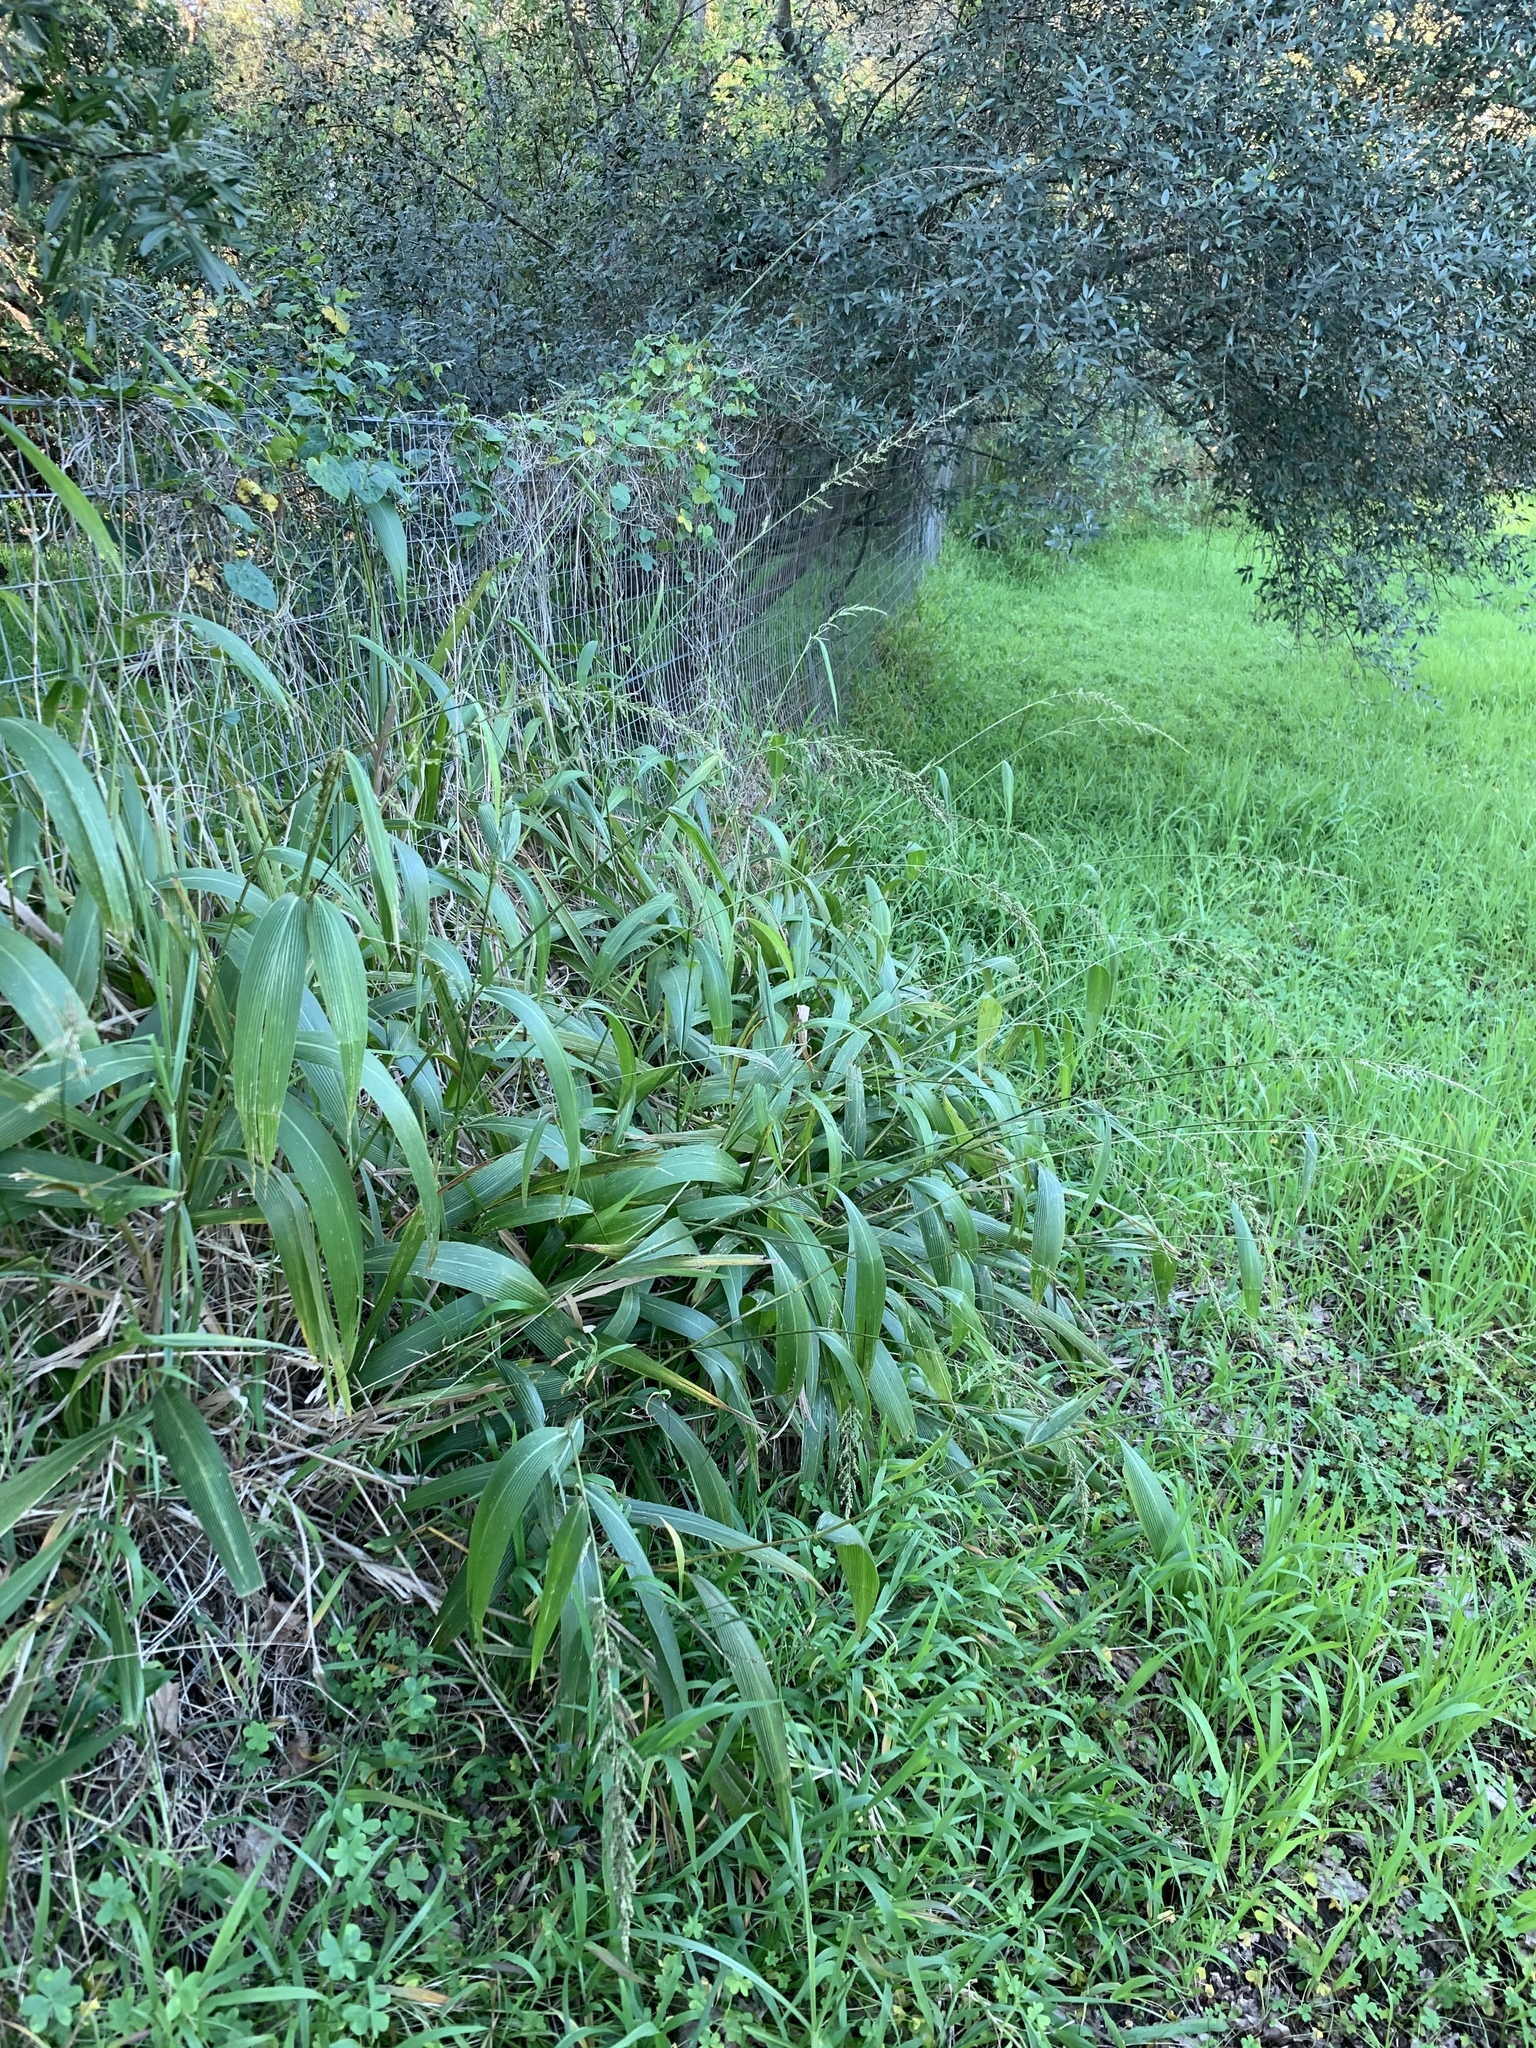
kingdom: Plantae
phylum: Tracheophyta
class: Liliopsida
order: Poales
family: Poaceae
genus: Setaria
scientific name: Setaria megaphylla
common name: Bigleaf bristlegrass
